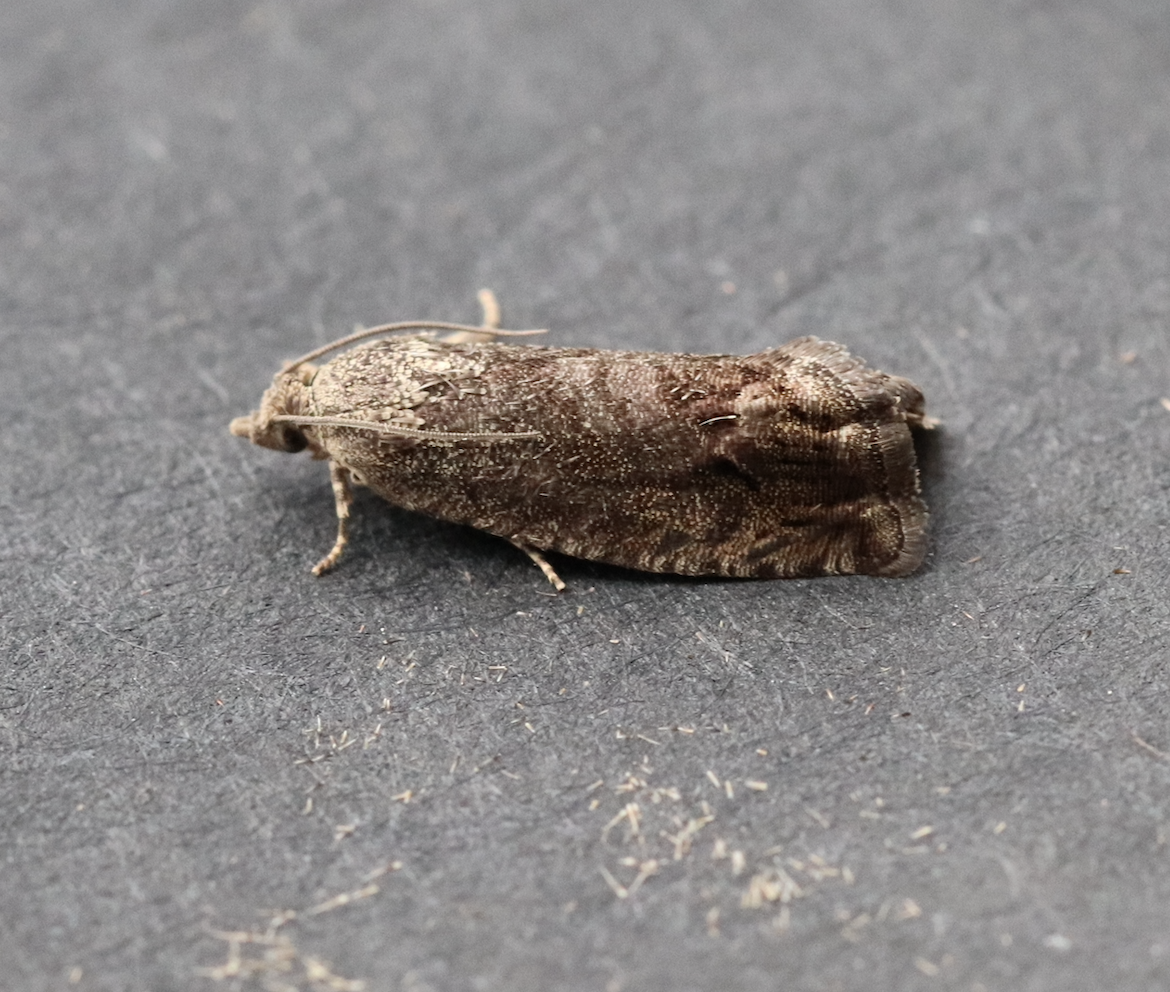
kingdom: Animalia
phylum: Arthropoda
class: Insecta
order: Lepidoptera
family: Tortricidae
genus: Cydia
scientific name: Cydia splendana
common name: De: kastanienwickler, eichenwickler es: oruga de la castaña fr: carpocapse des châtaignes it: cidia o tortrice tardiva delle castagne pt: bichado das castanhas gb: acorn moth, chestnut fruit tortrix
